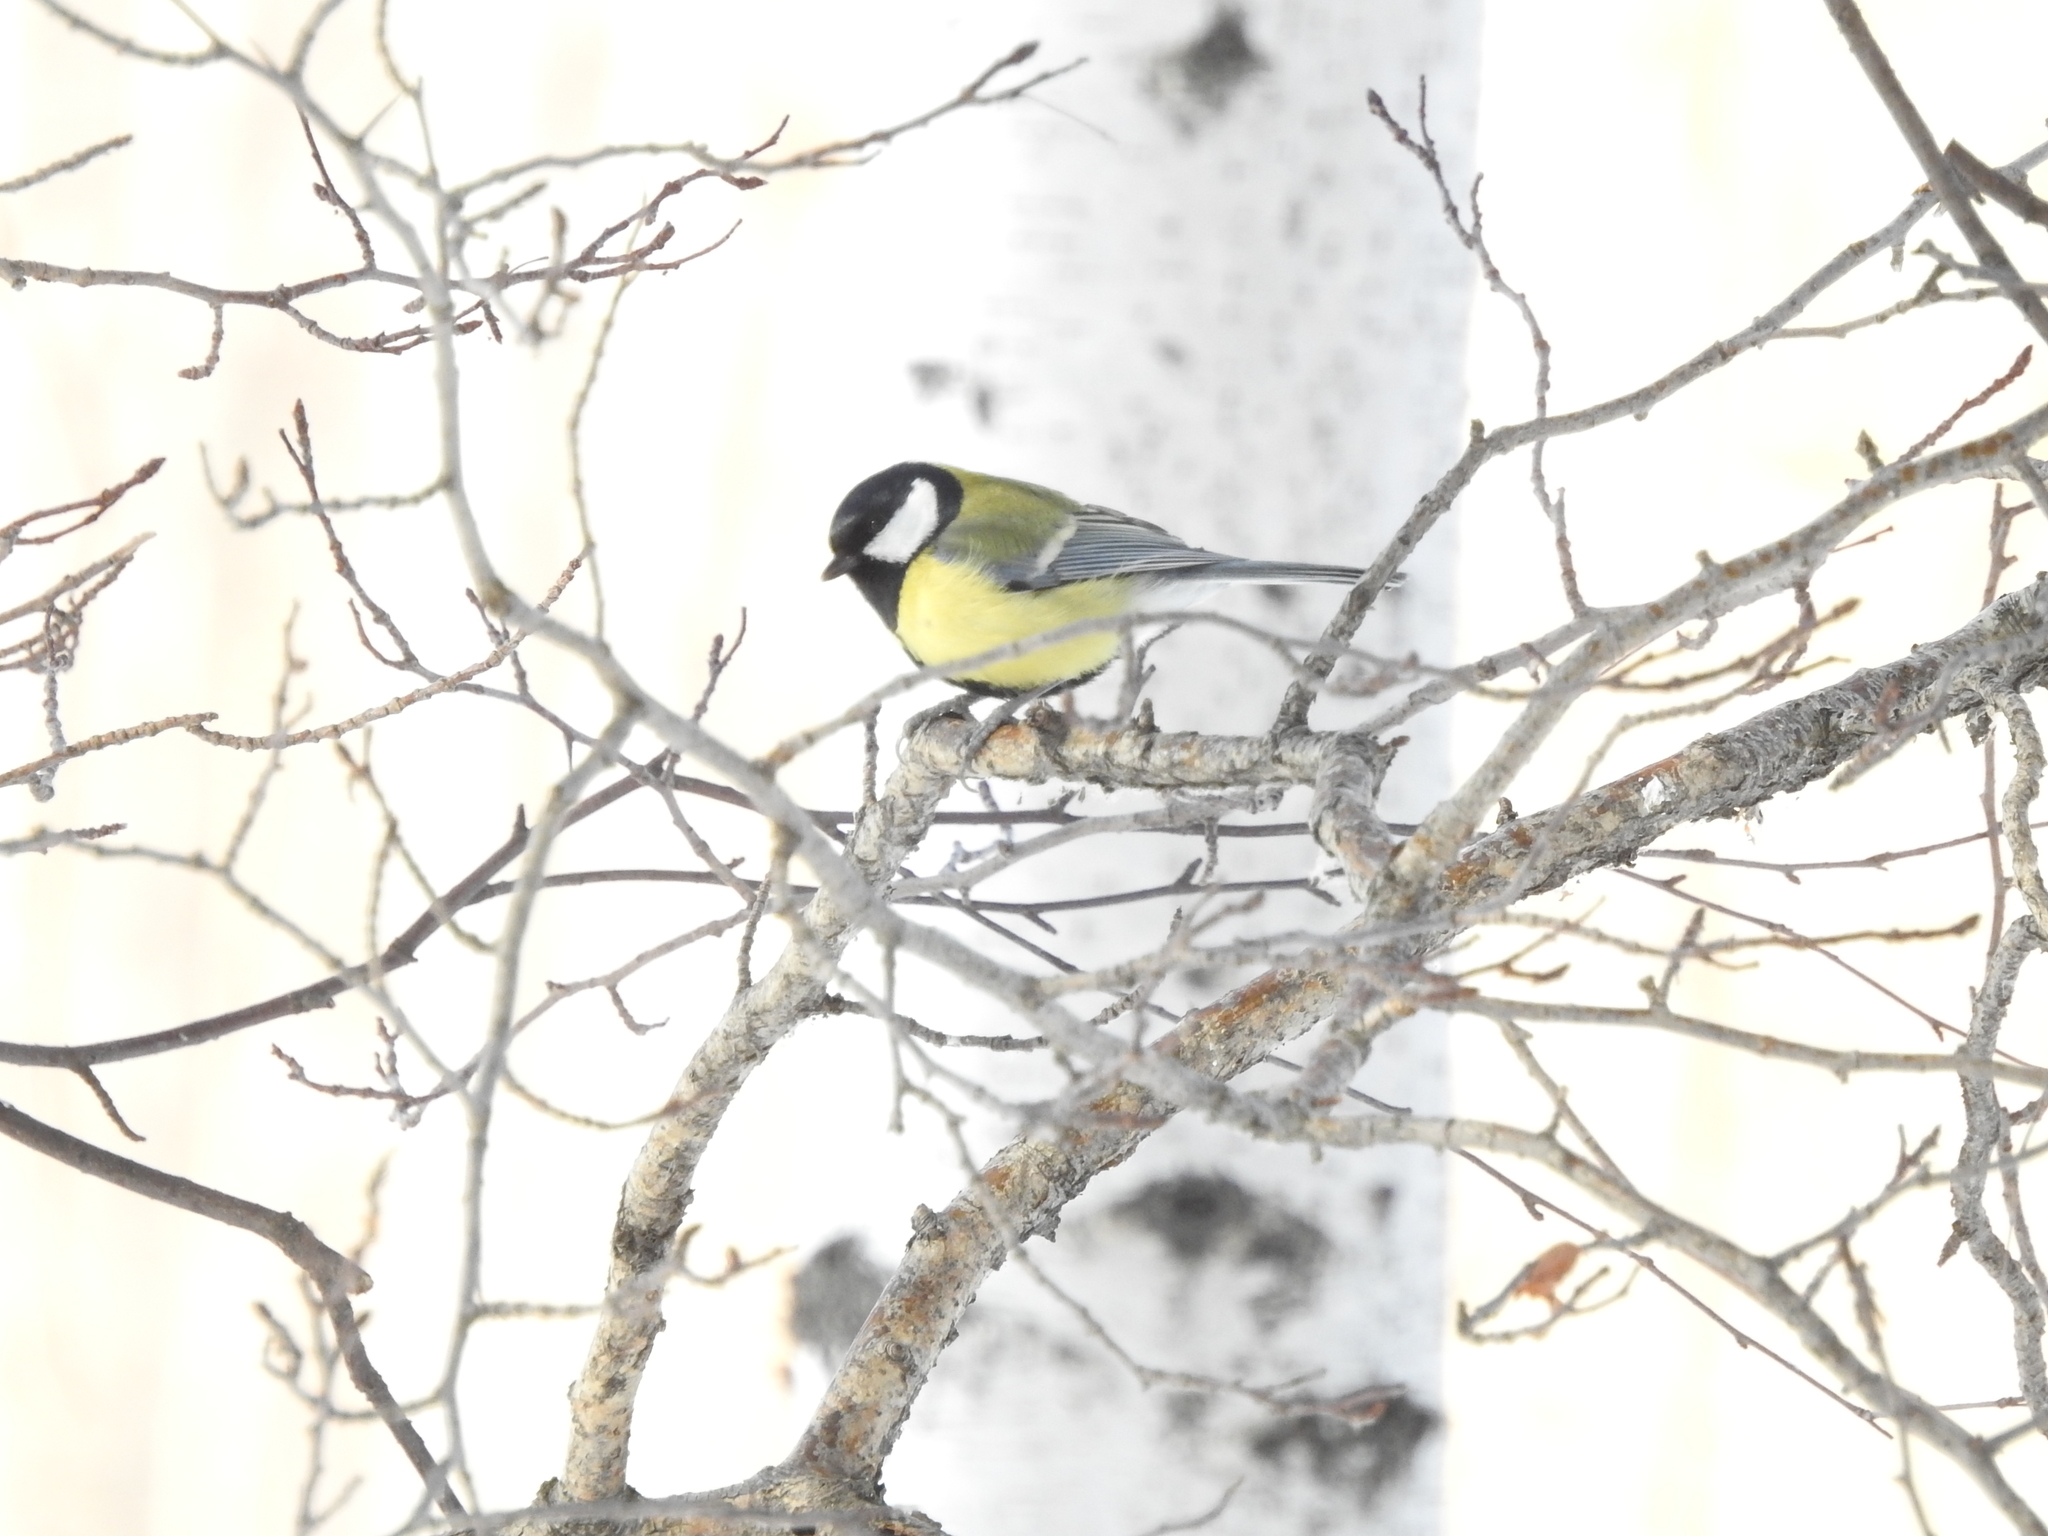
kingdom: Animalia
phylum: Chordata
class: Aves
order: Passeriformes
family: Paridae
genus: Parus
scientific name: Parus major
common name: Great tit
